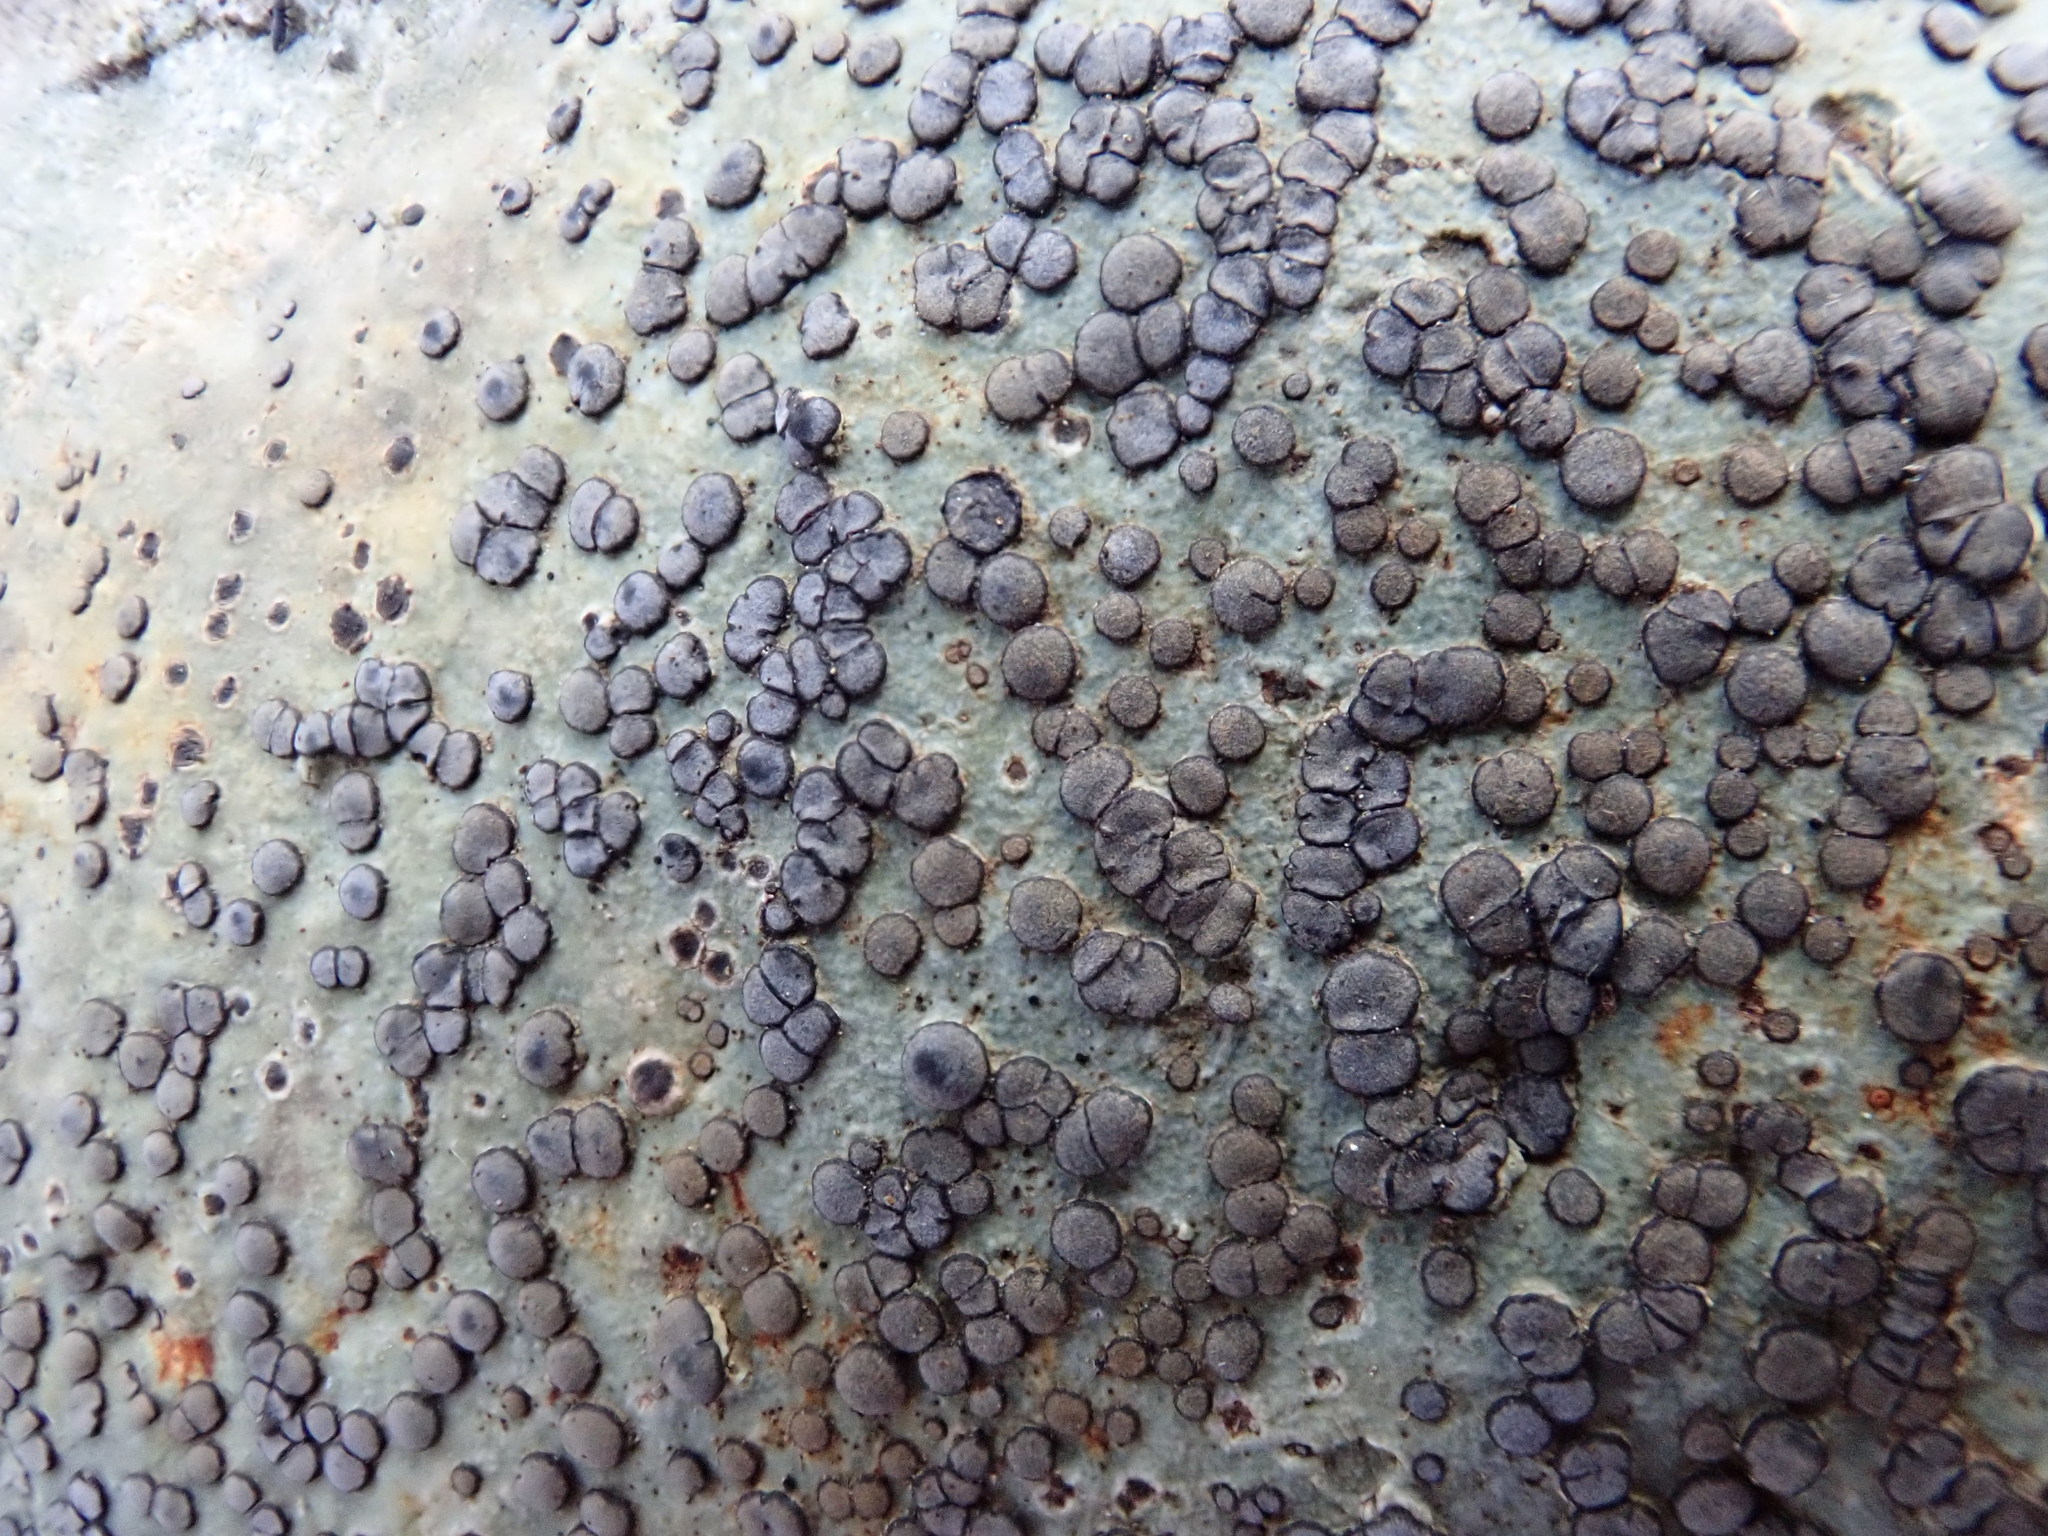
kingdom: Fungi
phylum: Ascomycota
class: Lecanoromycetes
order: Lecideales
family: Lecideaceae
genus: Porpidia
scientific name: Porpidia albocaerulescens
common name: Smokey-eyed boulder lichen
